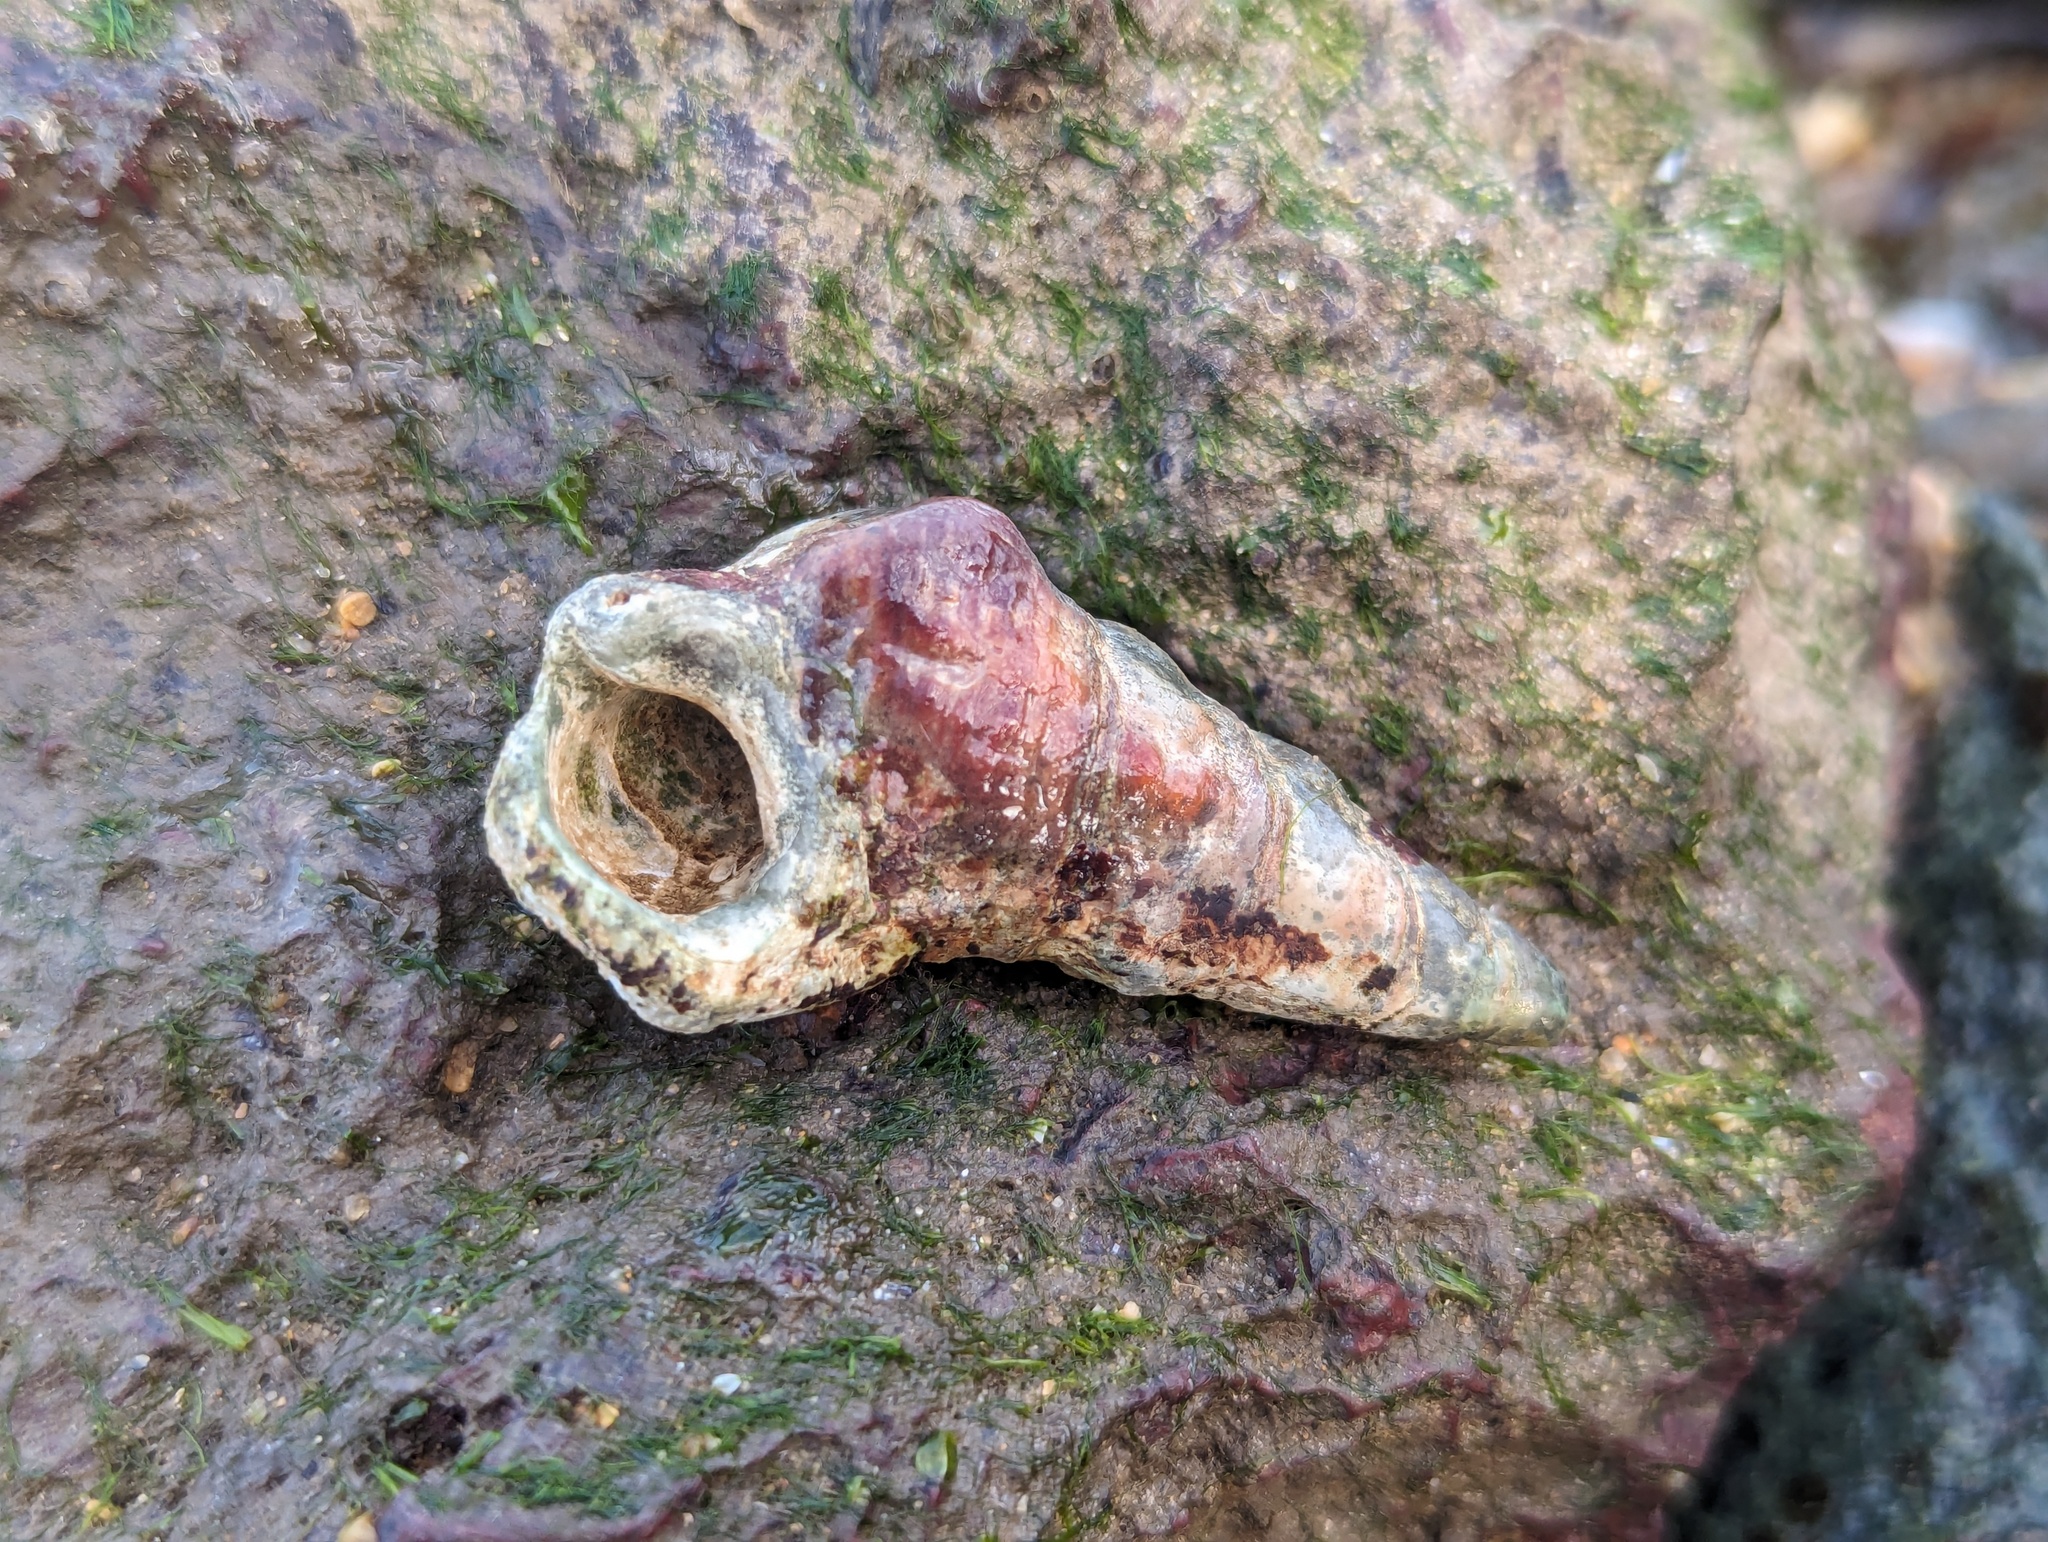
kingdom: Animalia
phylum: Mollusca
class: Gastropoda
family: Batillariidae
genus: Pyrazus
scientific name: Pyrazus ebeninus
